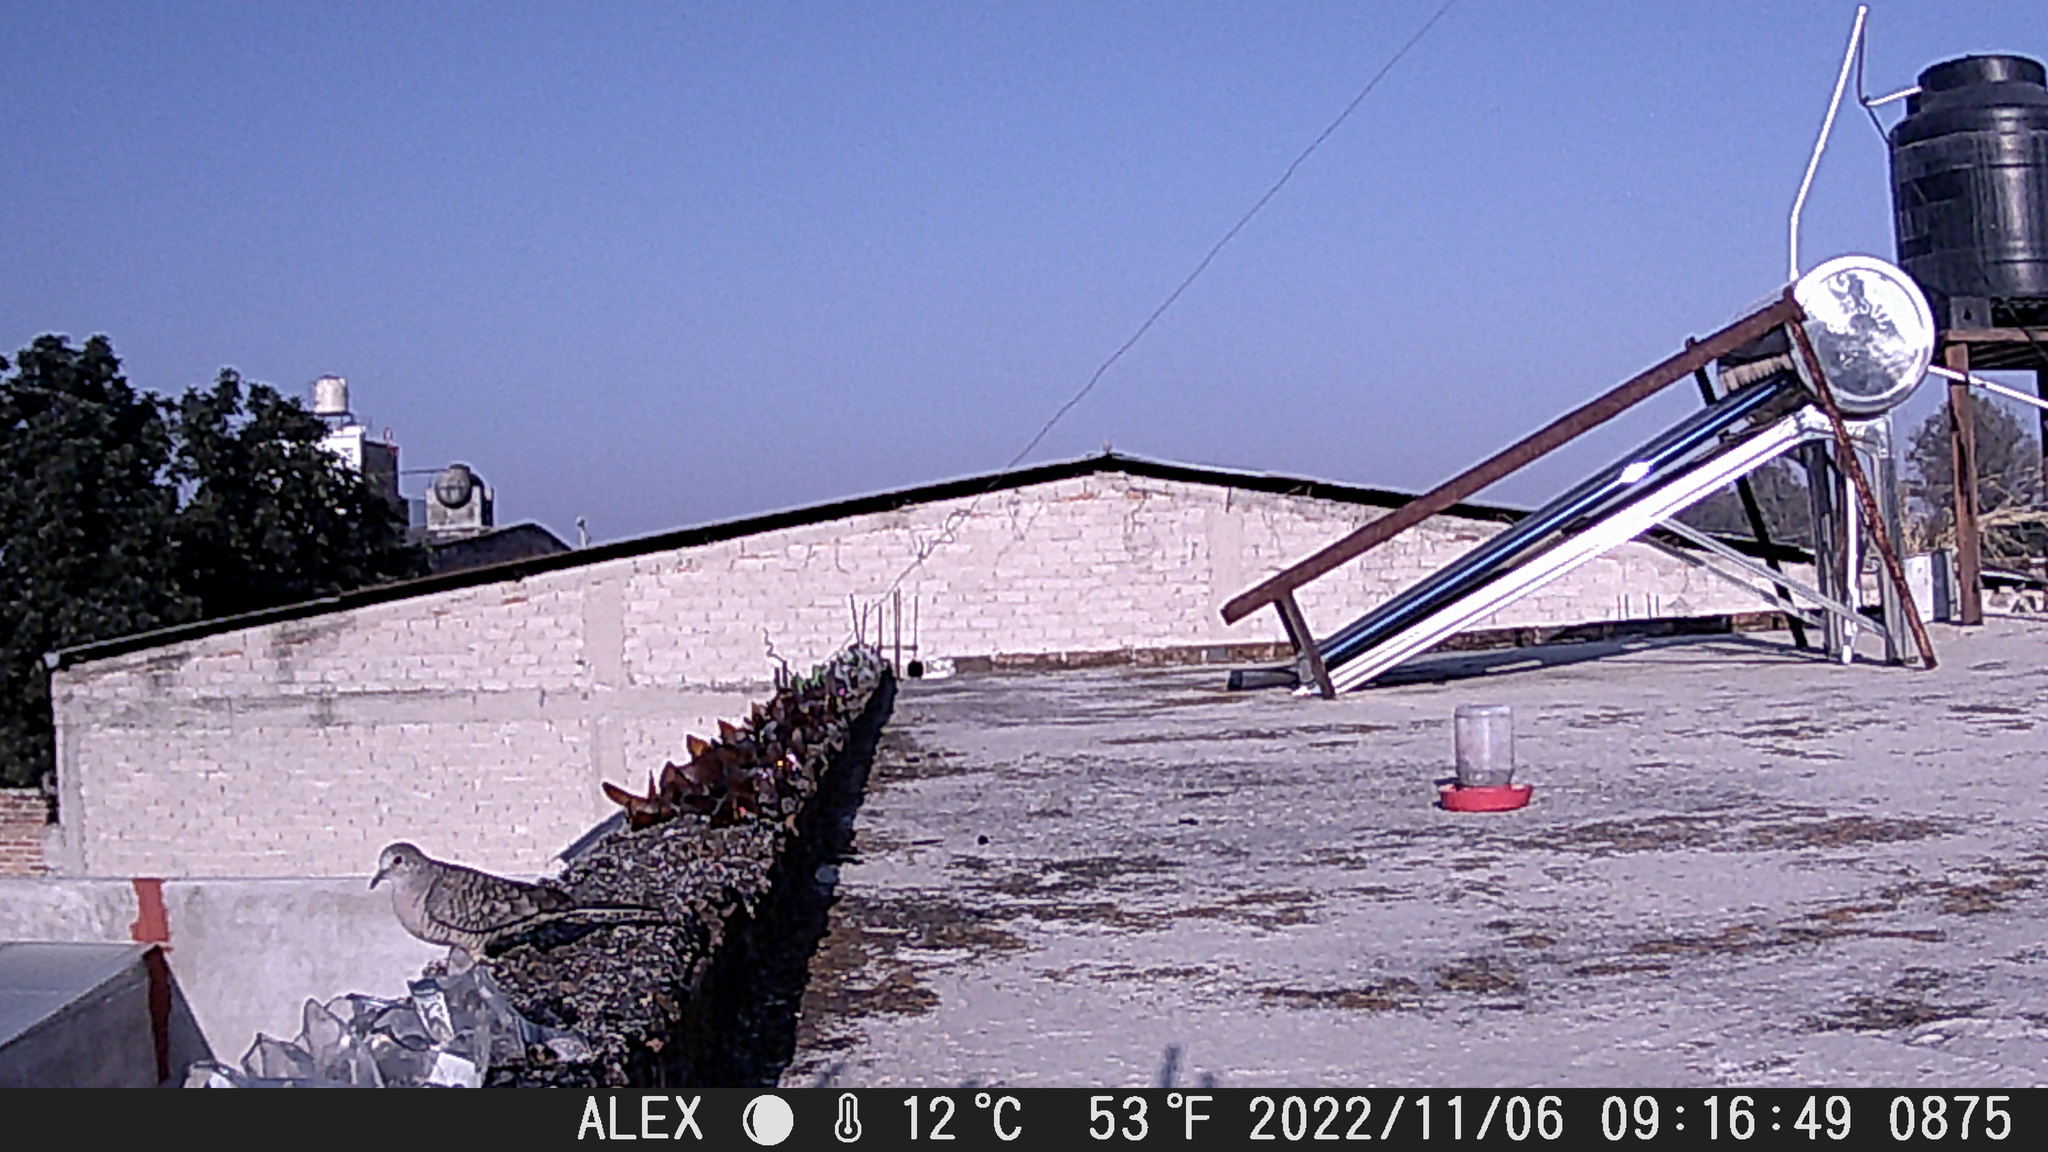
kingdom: Animalia
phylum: Chordata
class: Aves
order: Columbiformes
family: Columbidae
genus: Columbina
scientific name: Columbina inca
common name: Inca dove
